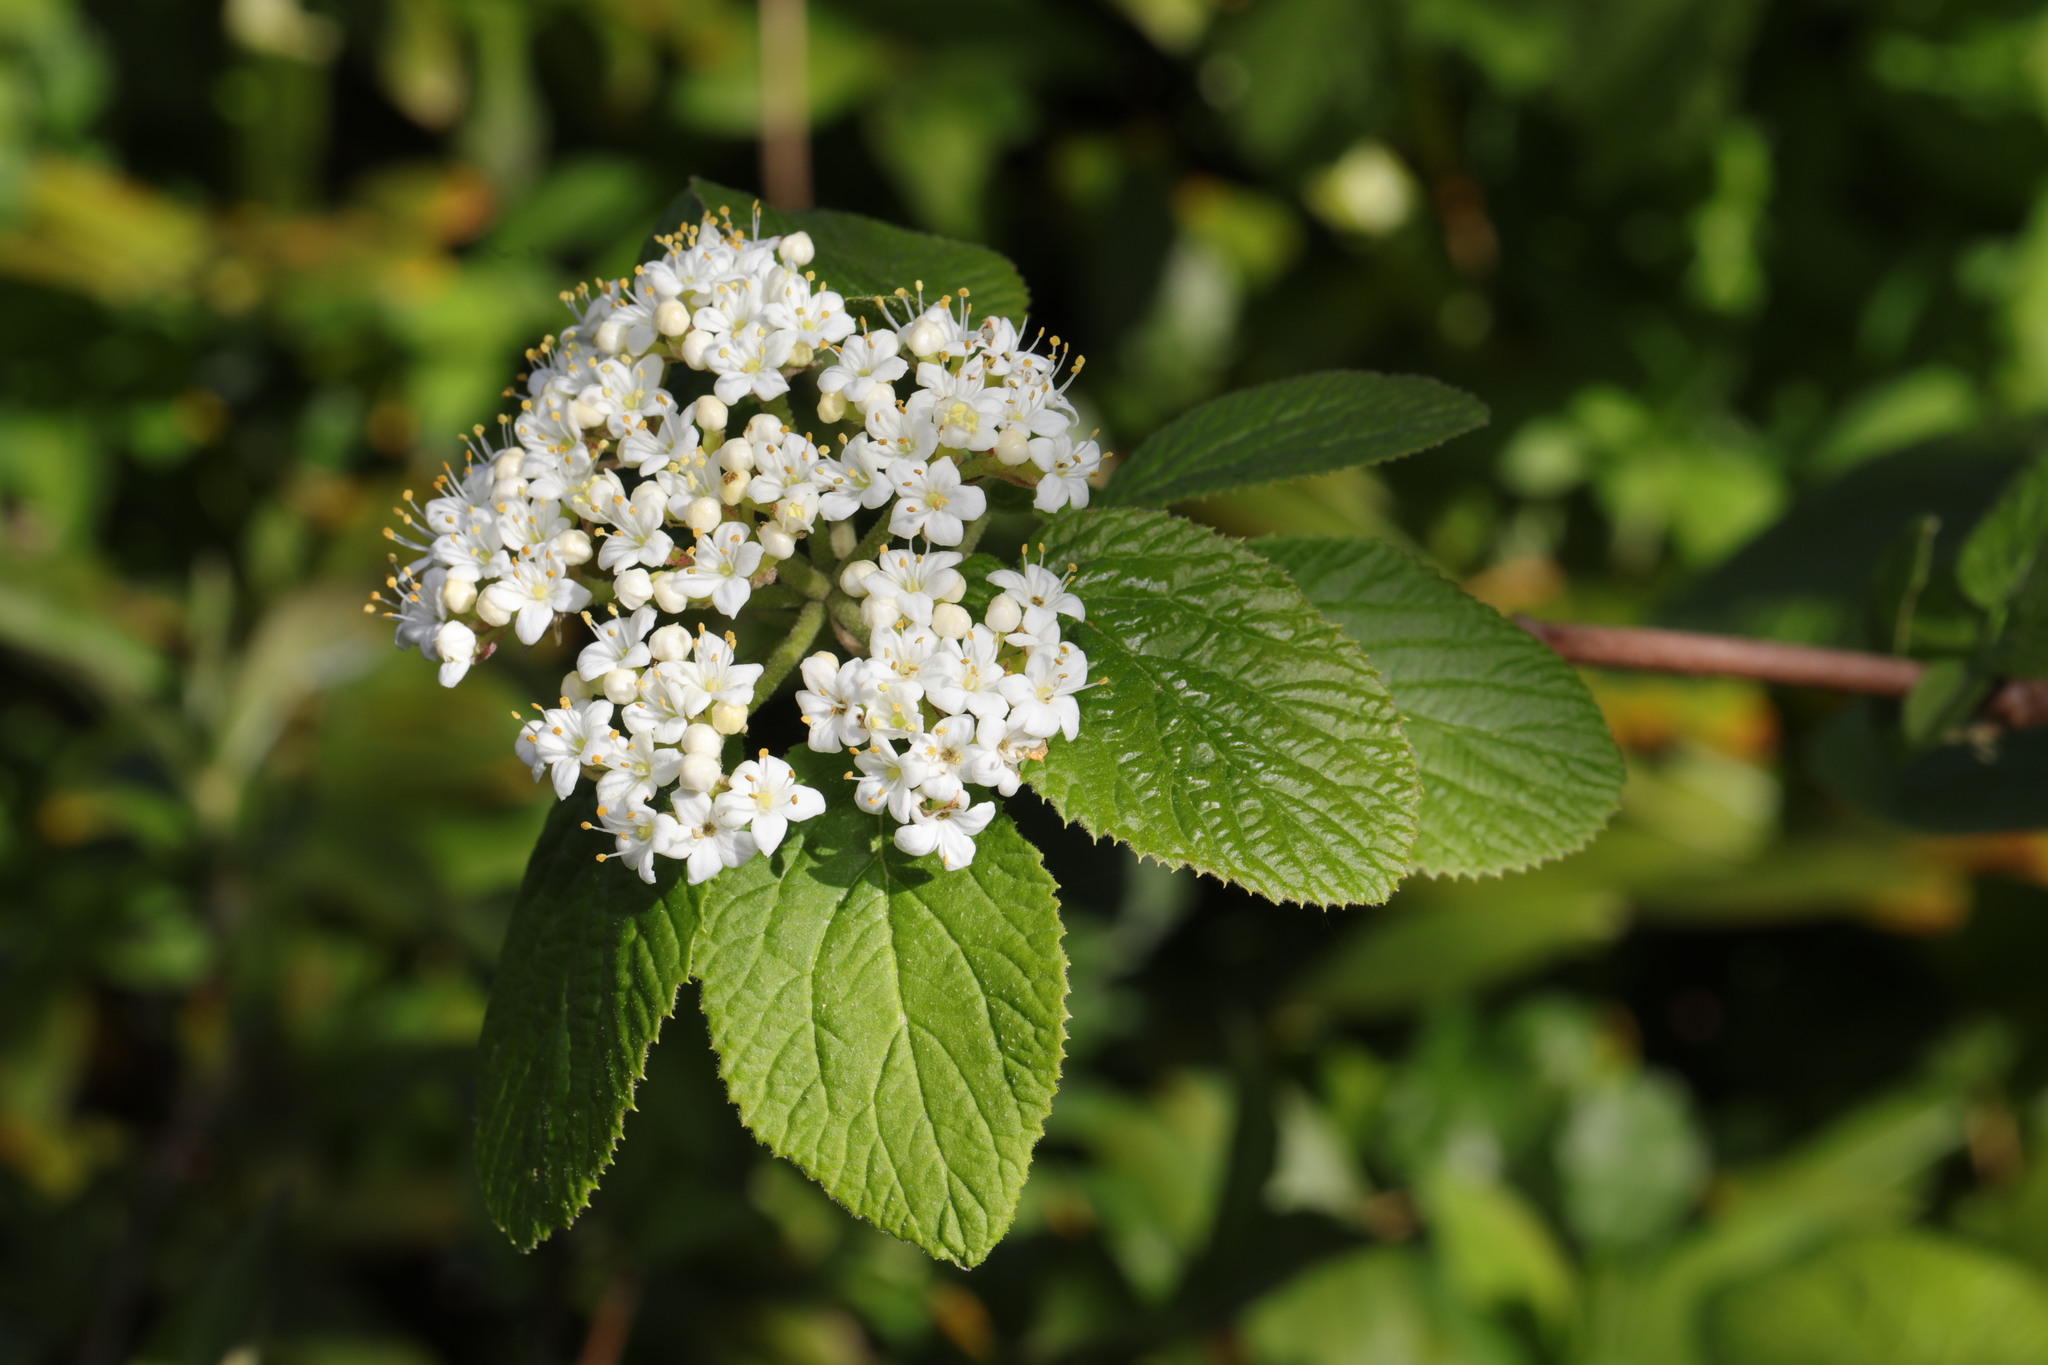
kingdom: Plantae
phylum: Tracheophyta
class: Magnoliopsida
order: Dipsacales
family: Viburnaceae
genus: Viburnum
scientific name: Viburnum lantana
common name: Wayfaring tree
